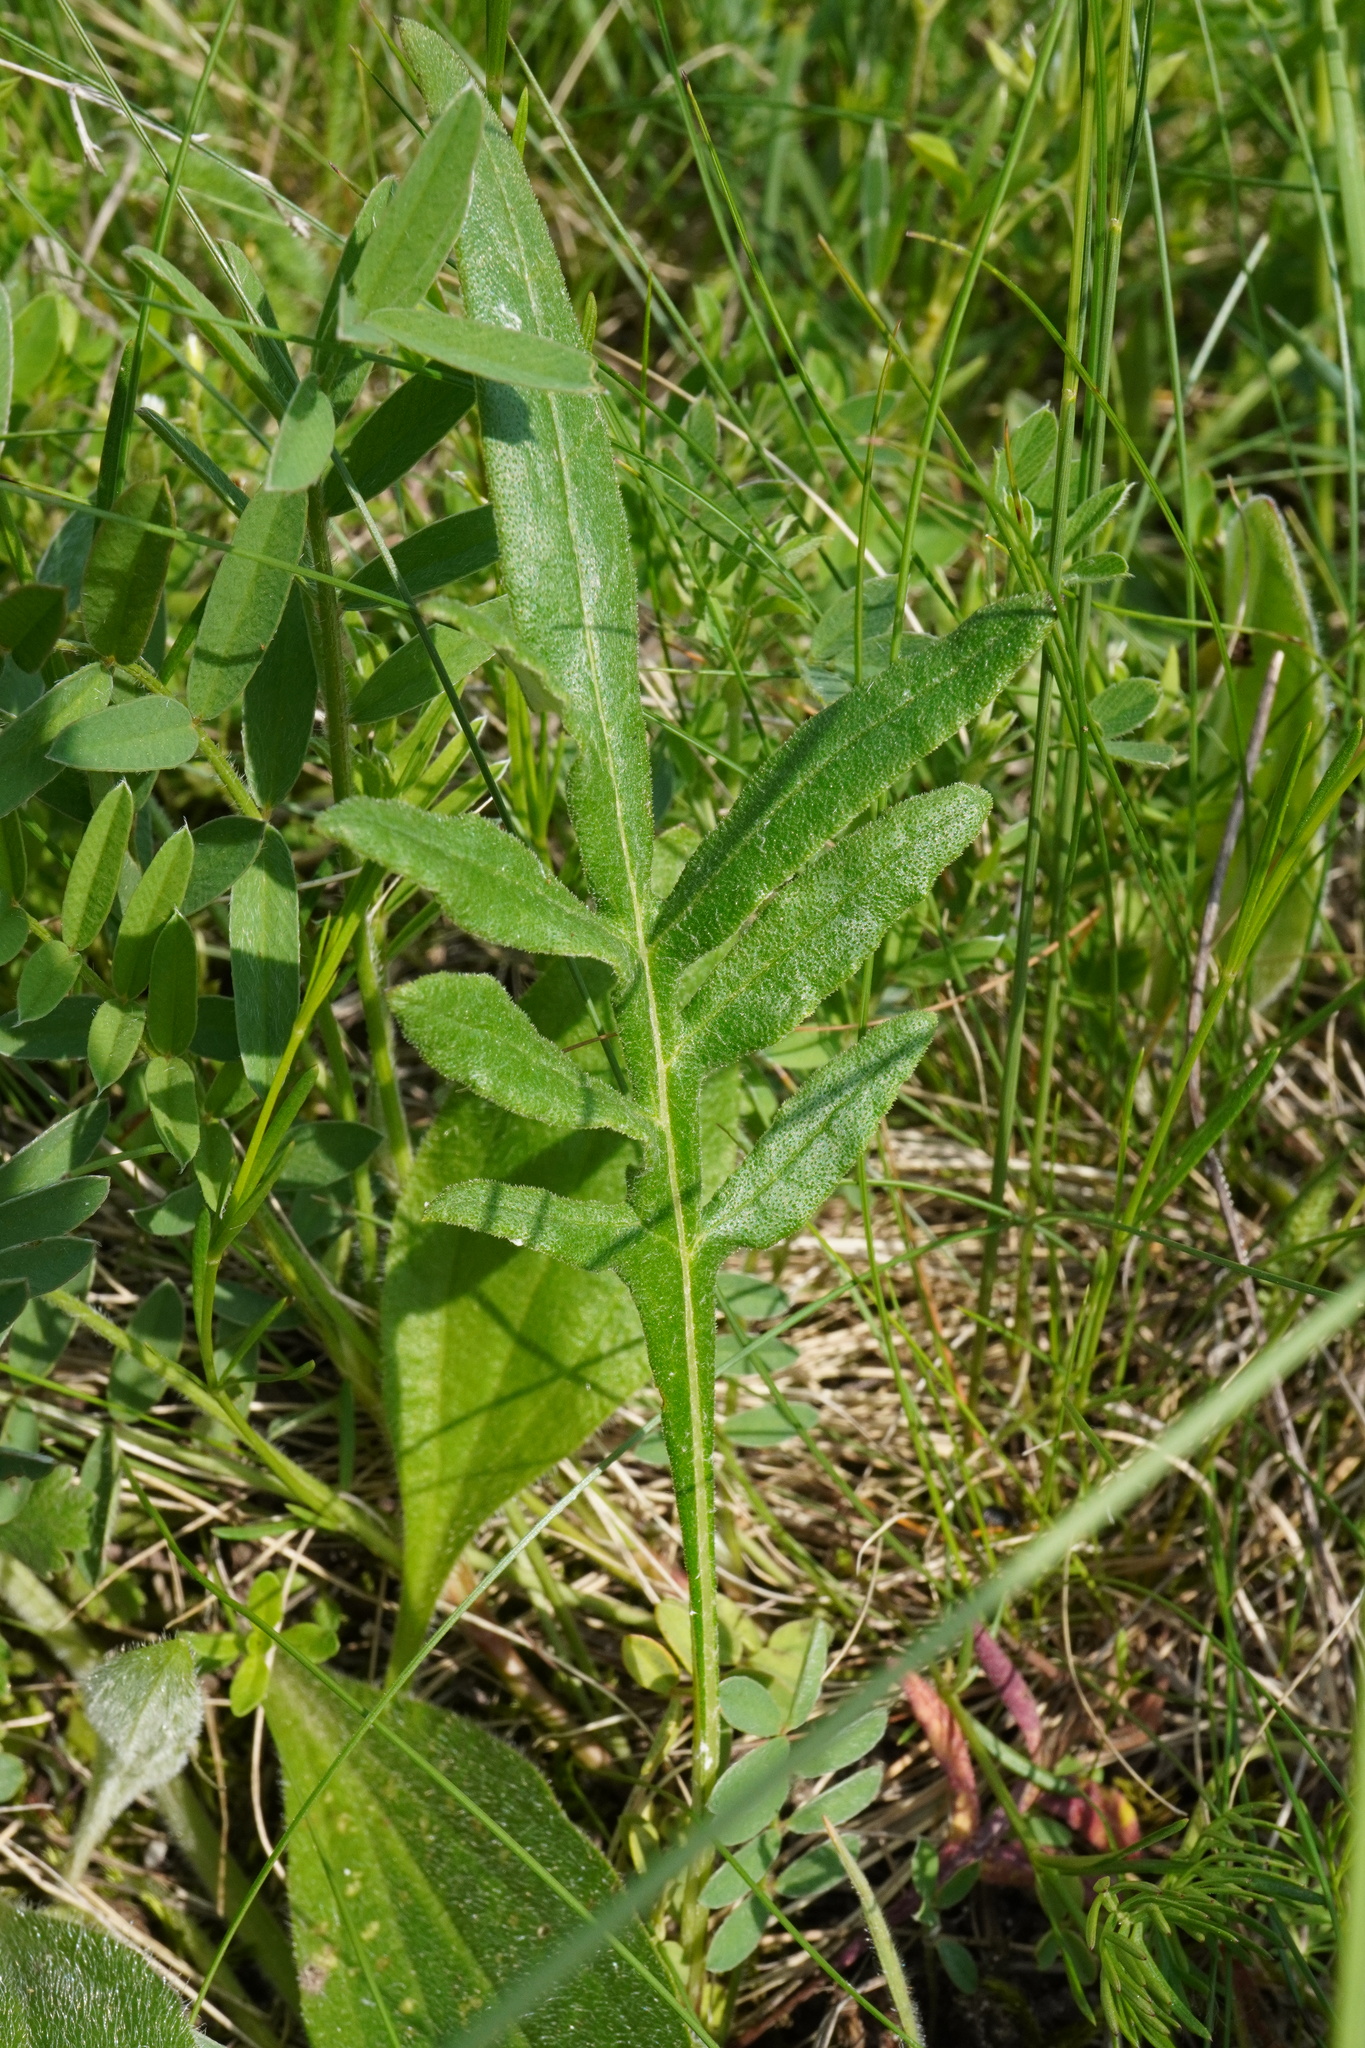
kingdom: Plantae
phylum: Tracheophyta
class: Magnoliopsida
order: Asterales
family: Asteraceae
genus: Jurinea
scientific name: Jurinea mollis
